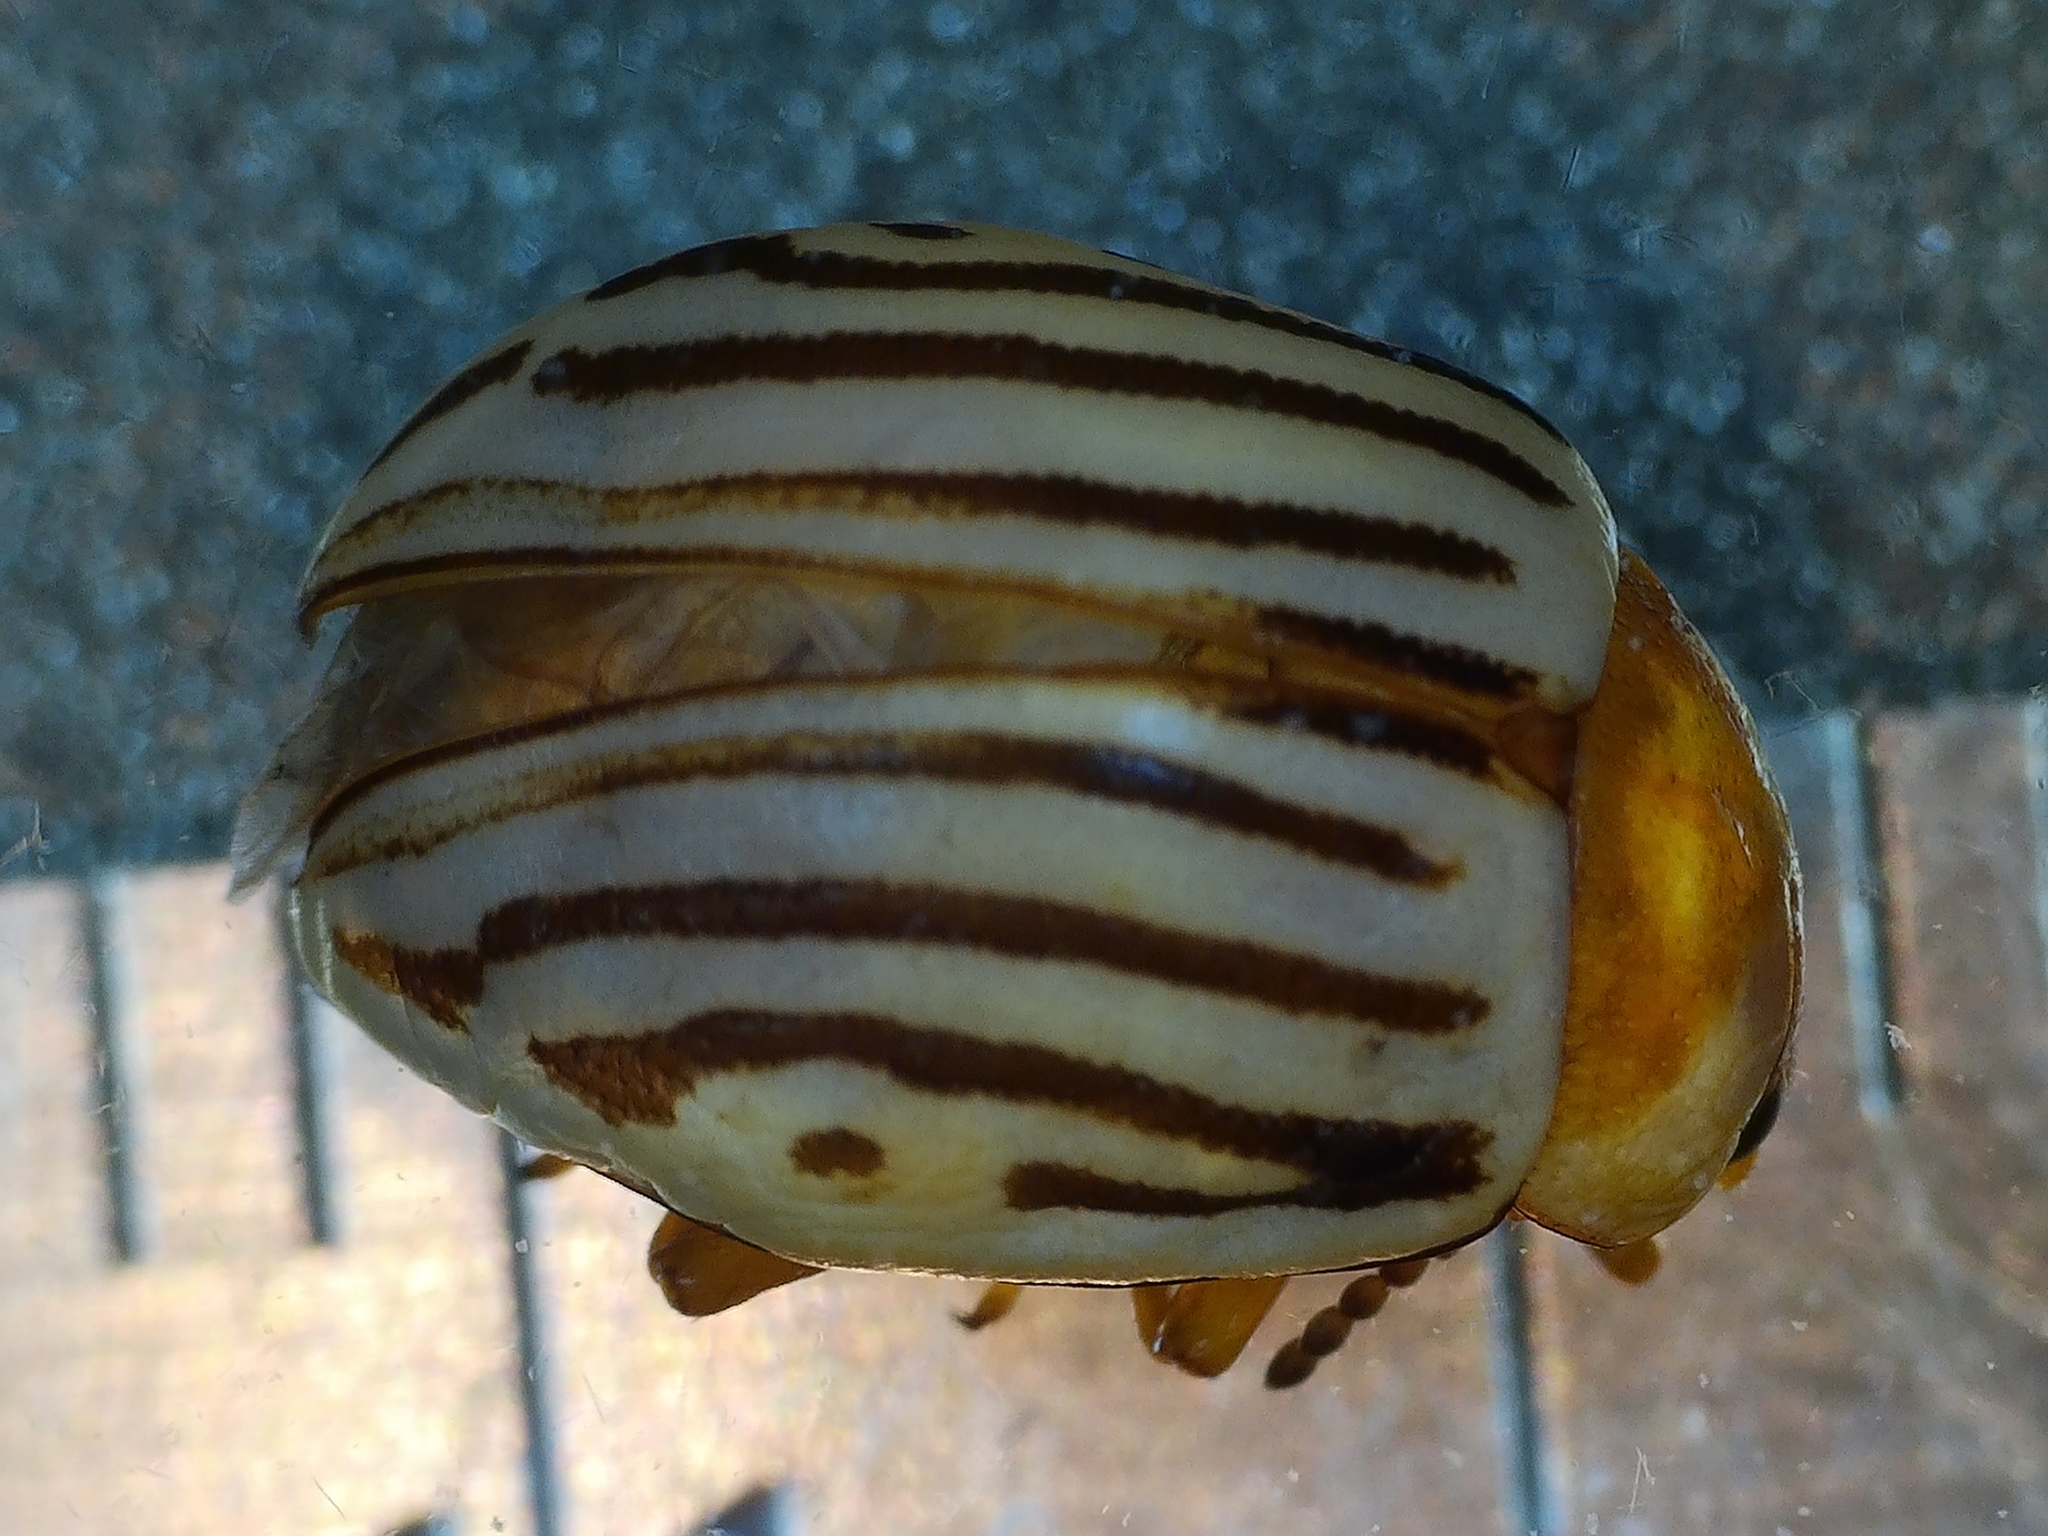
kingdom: Animalia
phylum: Arthropoda
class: Insecta
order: Coleoptera
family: Chrysomelidae
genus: Calligrapha
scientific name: Calligrapha
